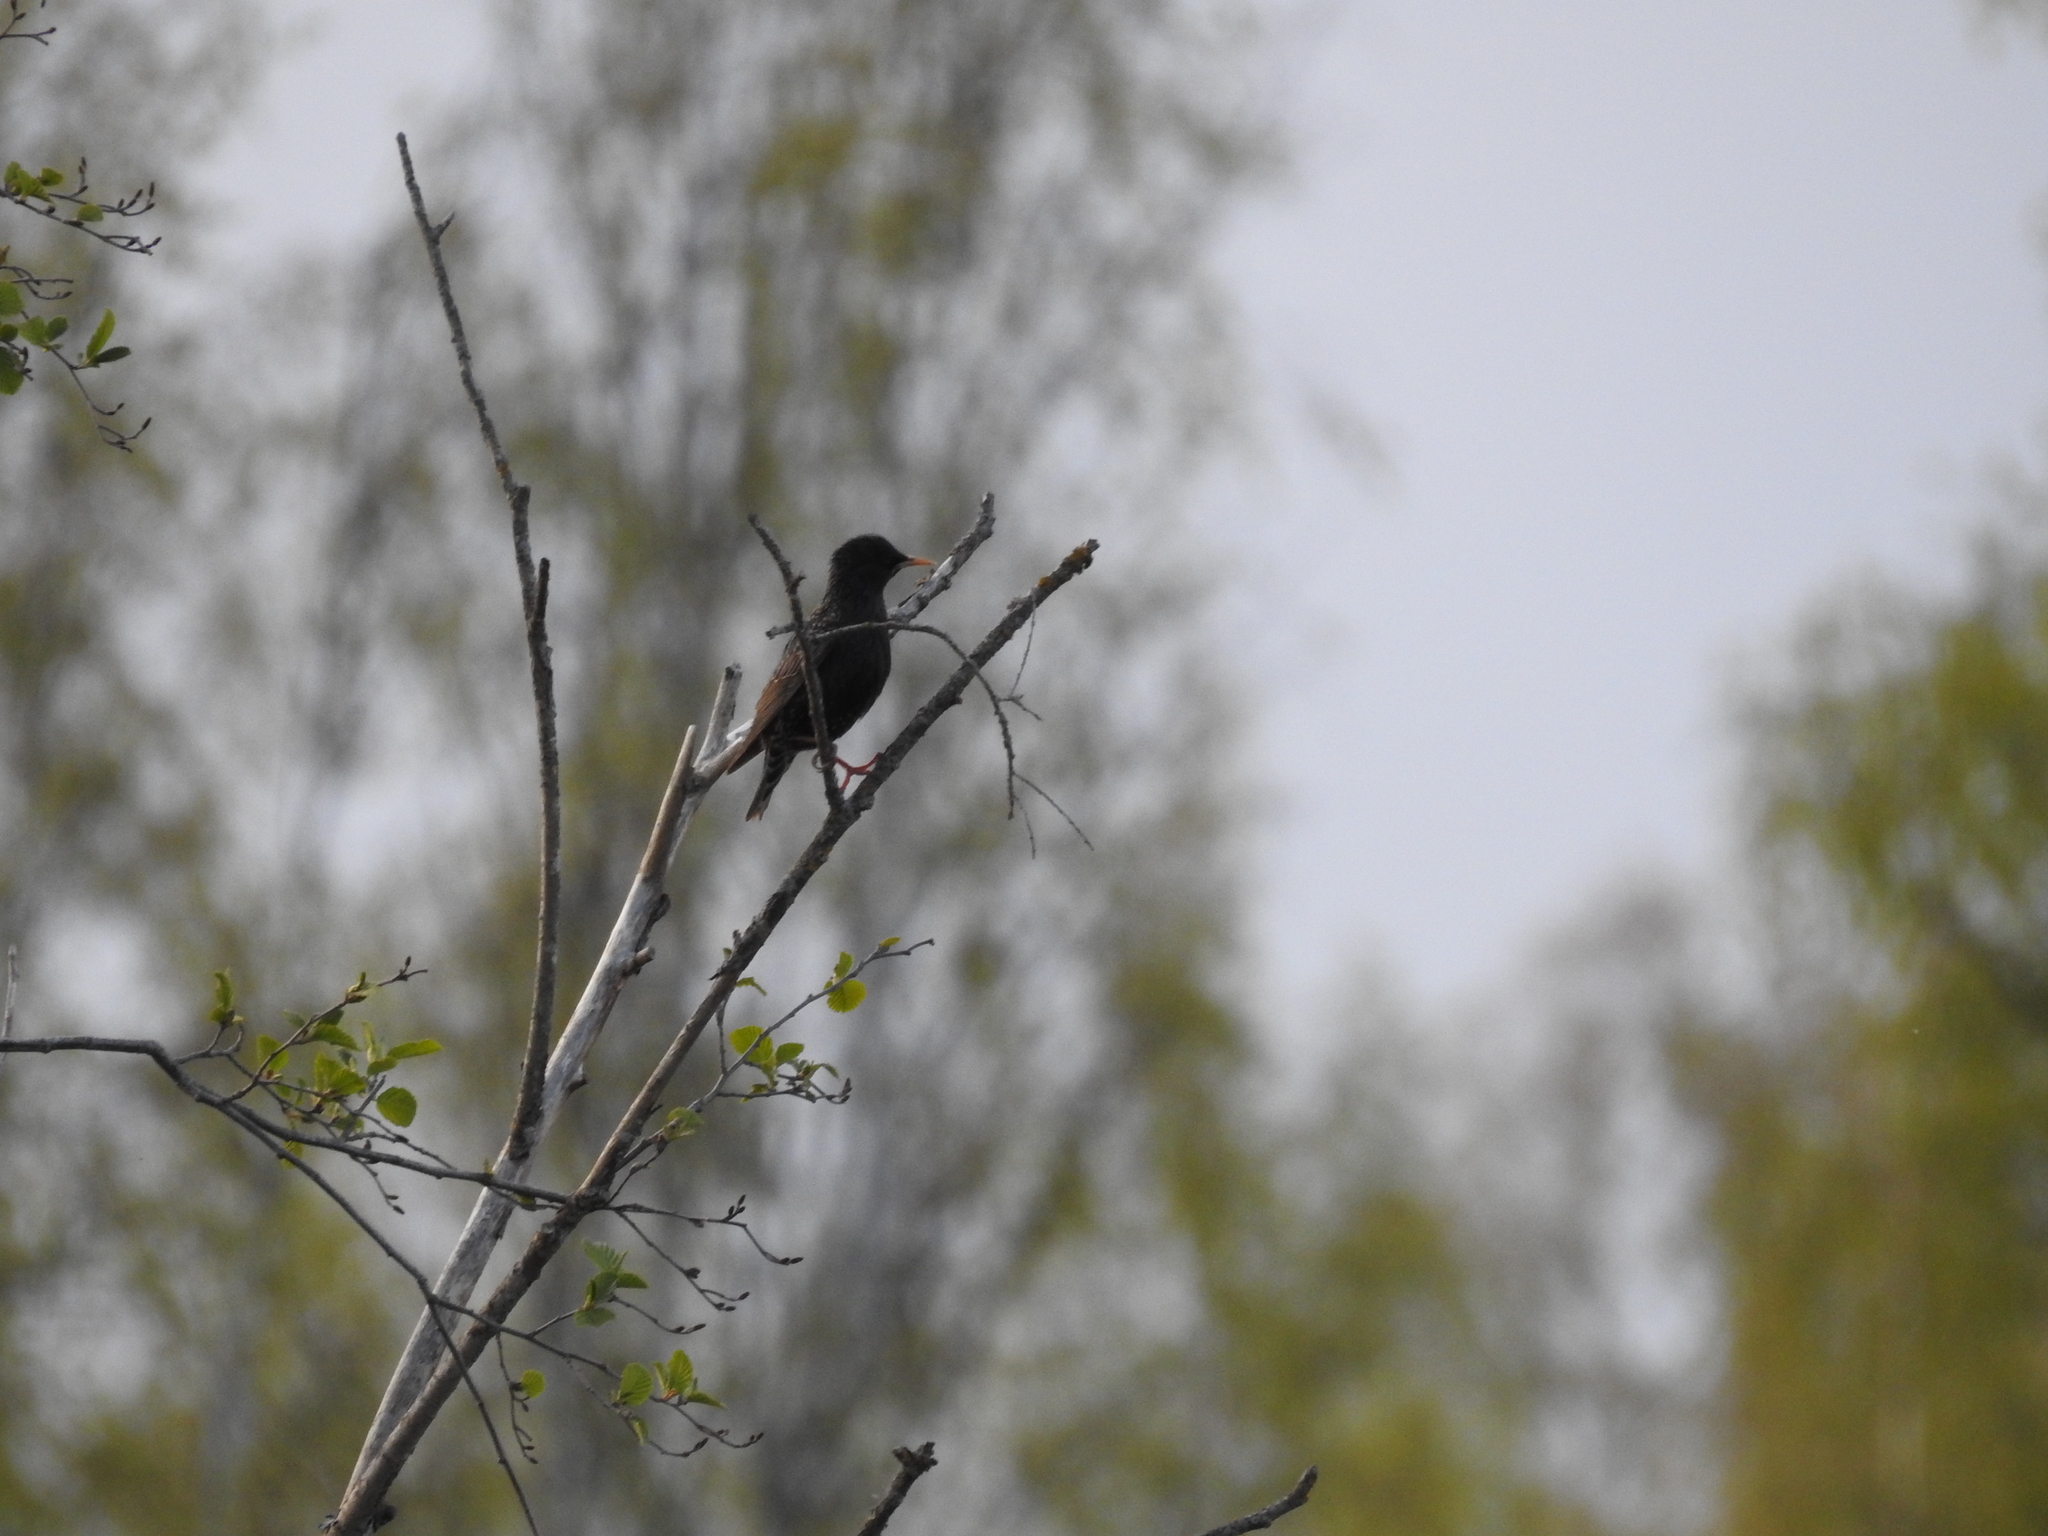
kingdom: Animalia
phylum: Chordata
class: Aves
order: Passeriformes
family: Sturnidae
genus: Sturnus
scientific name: Sturnus vulgaris
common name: Common starling
